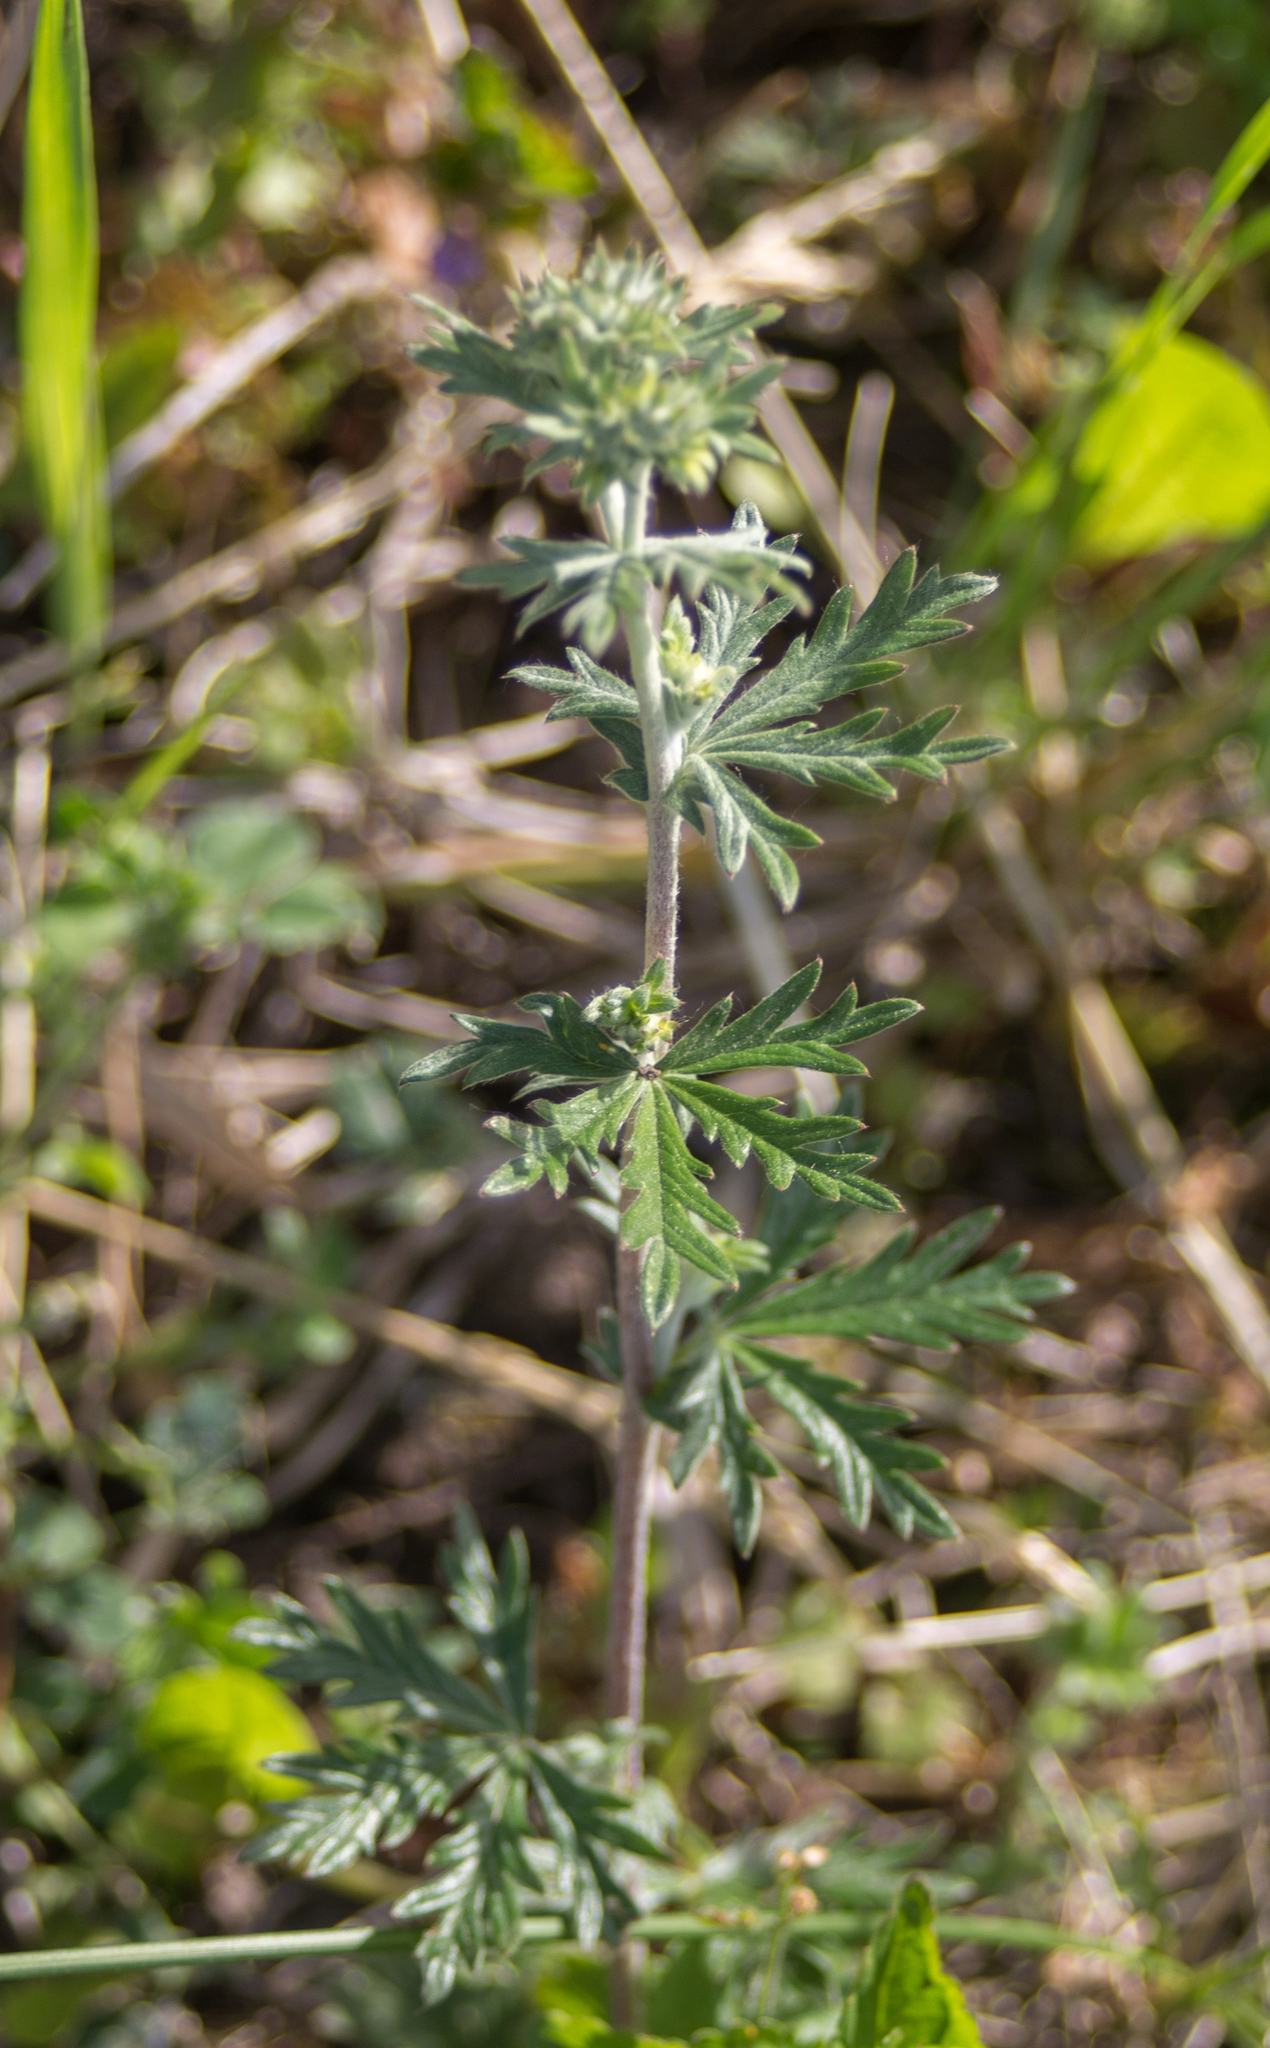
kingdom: Plantae
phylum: Tracheophyta
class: Magnoliopsida
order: Rosales
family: Rosaceae
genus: Potentilla
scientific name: Potentilla argentea
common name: Hoary cinquefoil
